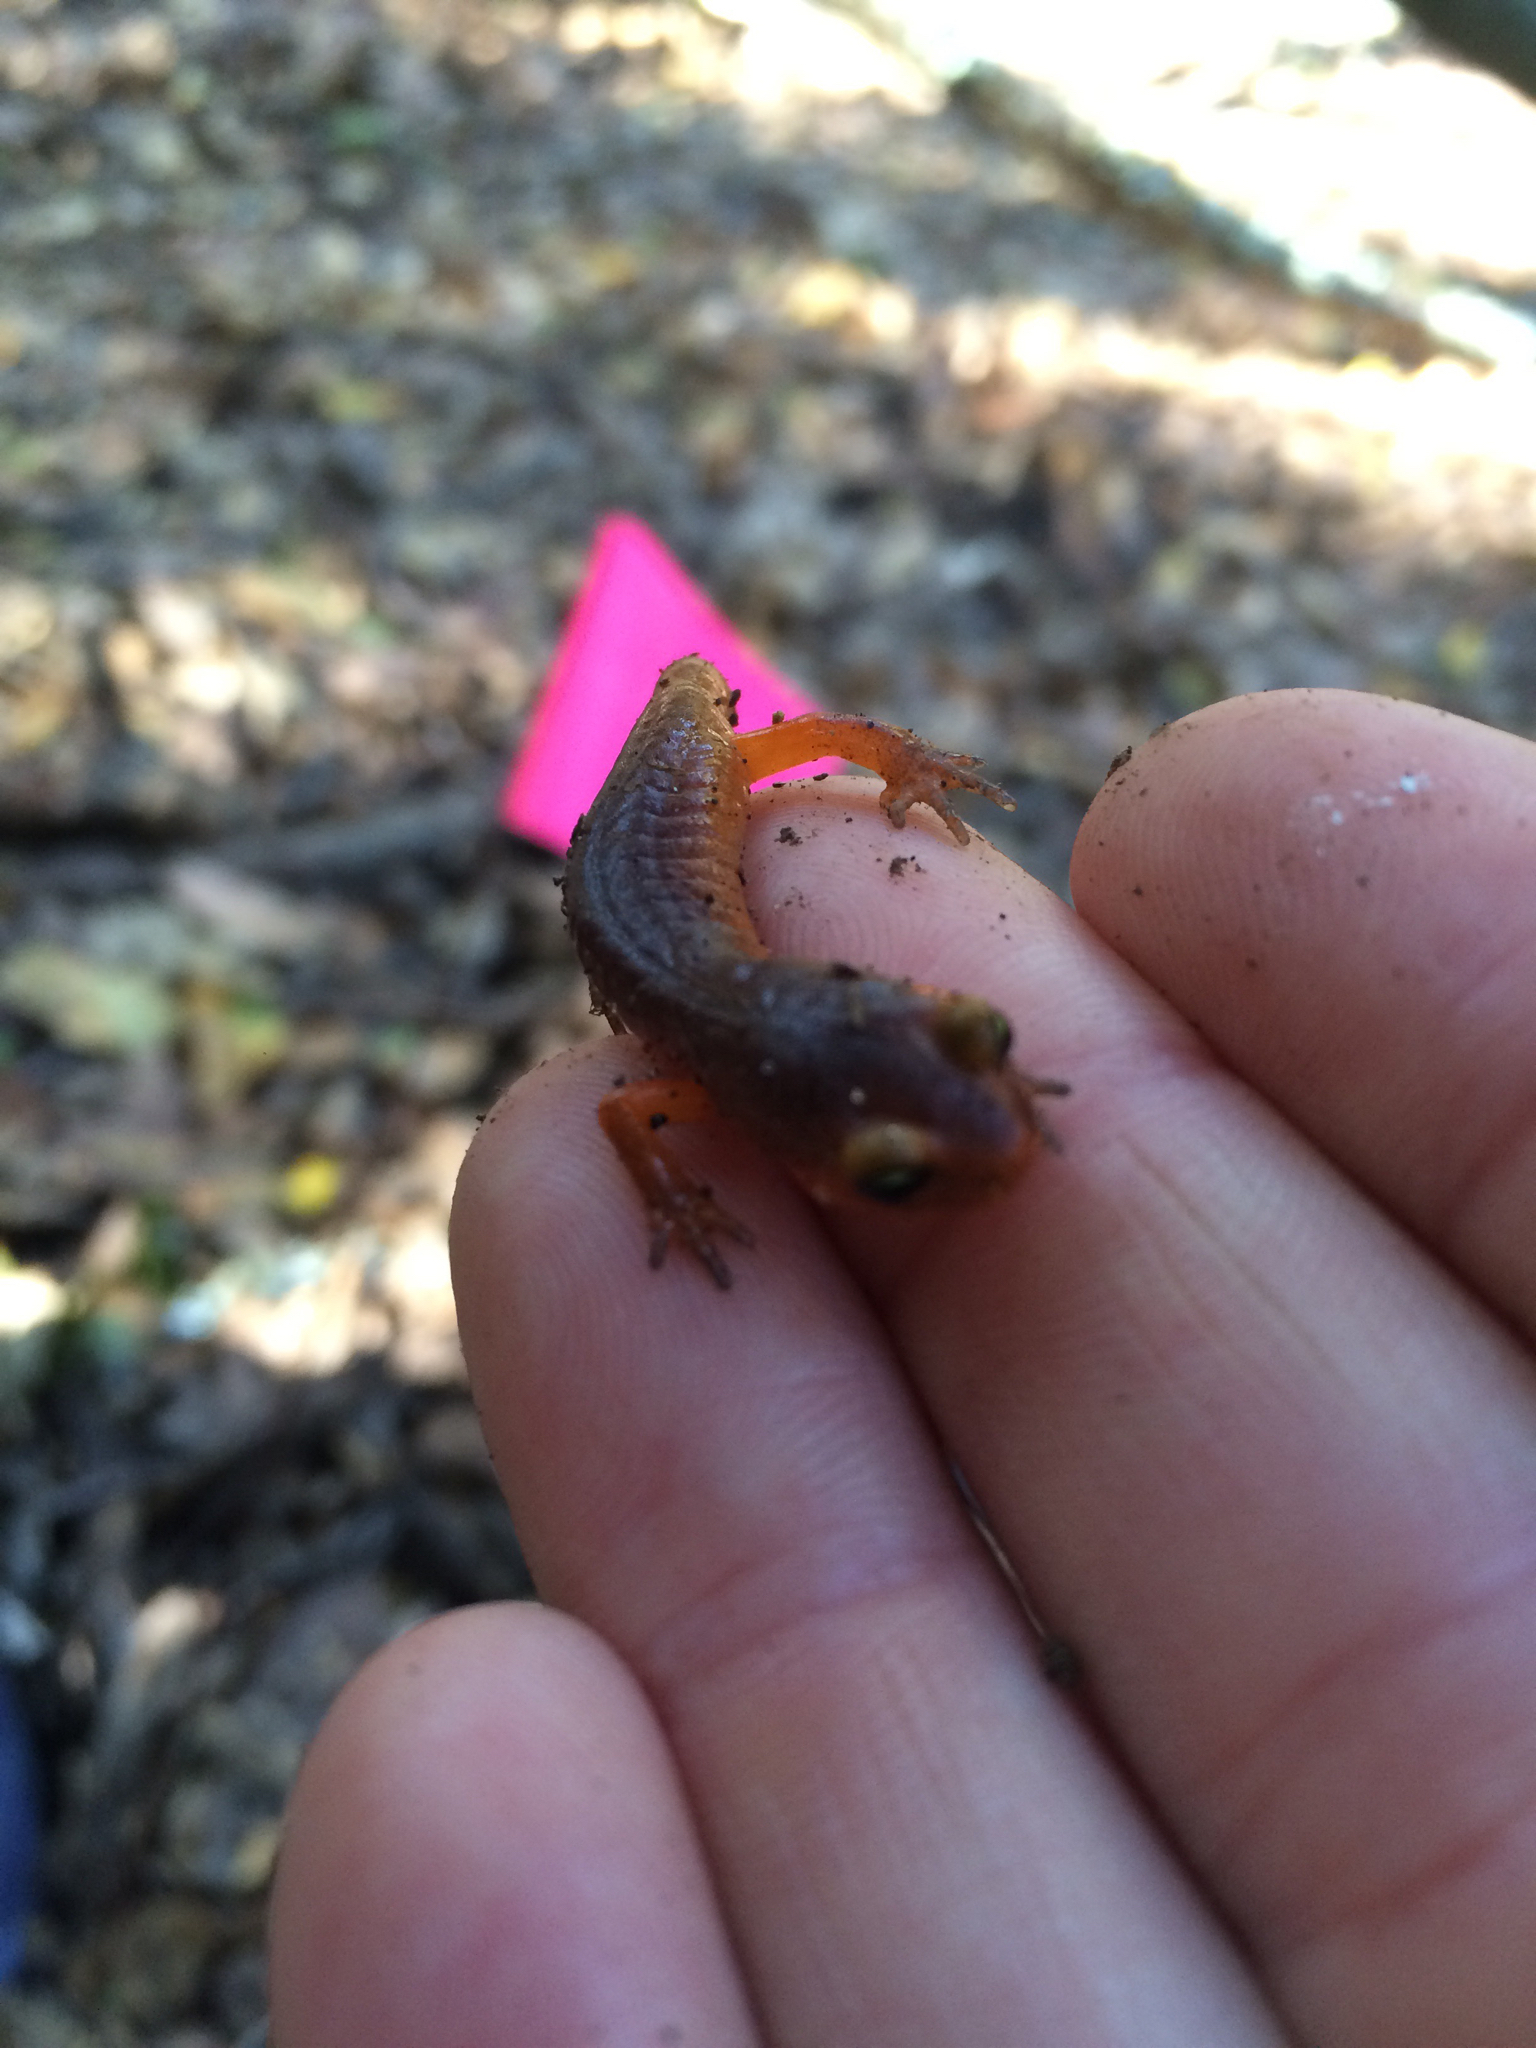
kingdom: Animalia
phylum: Chordata
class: Amphibia
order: Caudata
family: Plethodontidae
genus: Ensatina
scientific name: Ensatina eschscholtzii
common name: Ensatina
